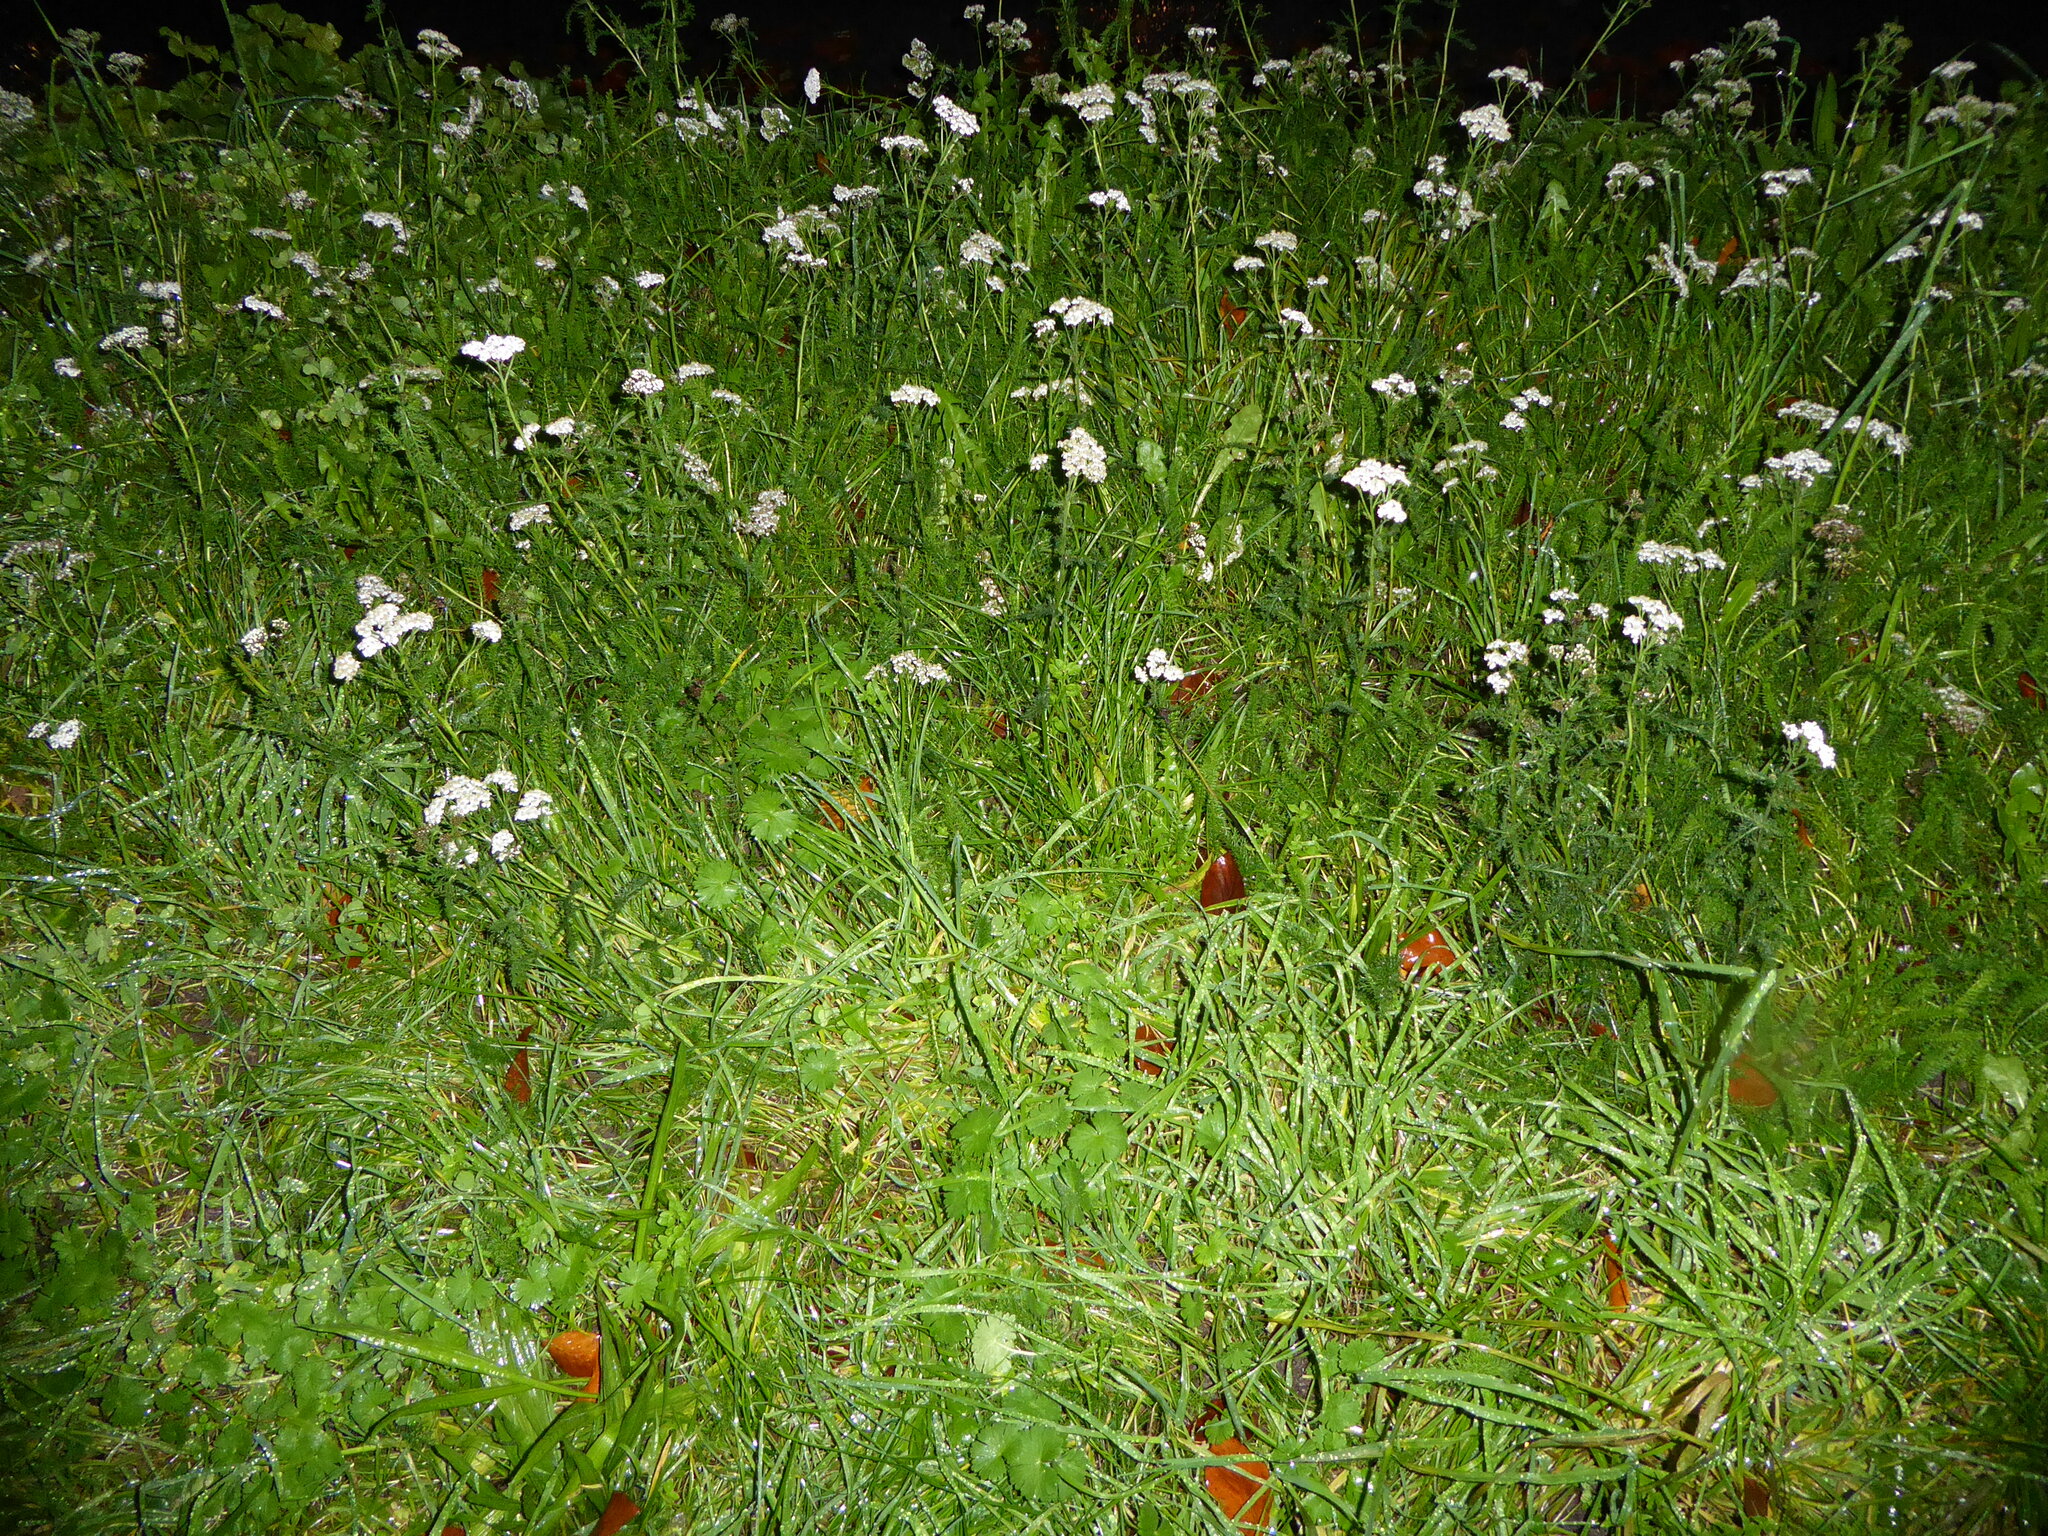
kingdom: Plantae
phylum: Tracheophyta
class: Magnoliopsida
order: Asterales
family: Asteraceae
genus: Achillea
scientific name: Achillea millefolium
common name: Yarrow
